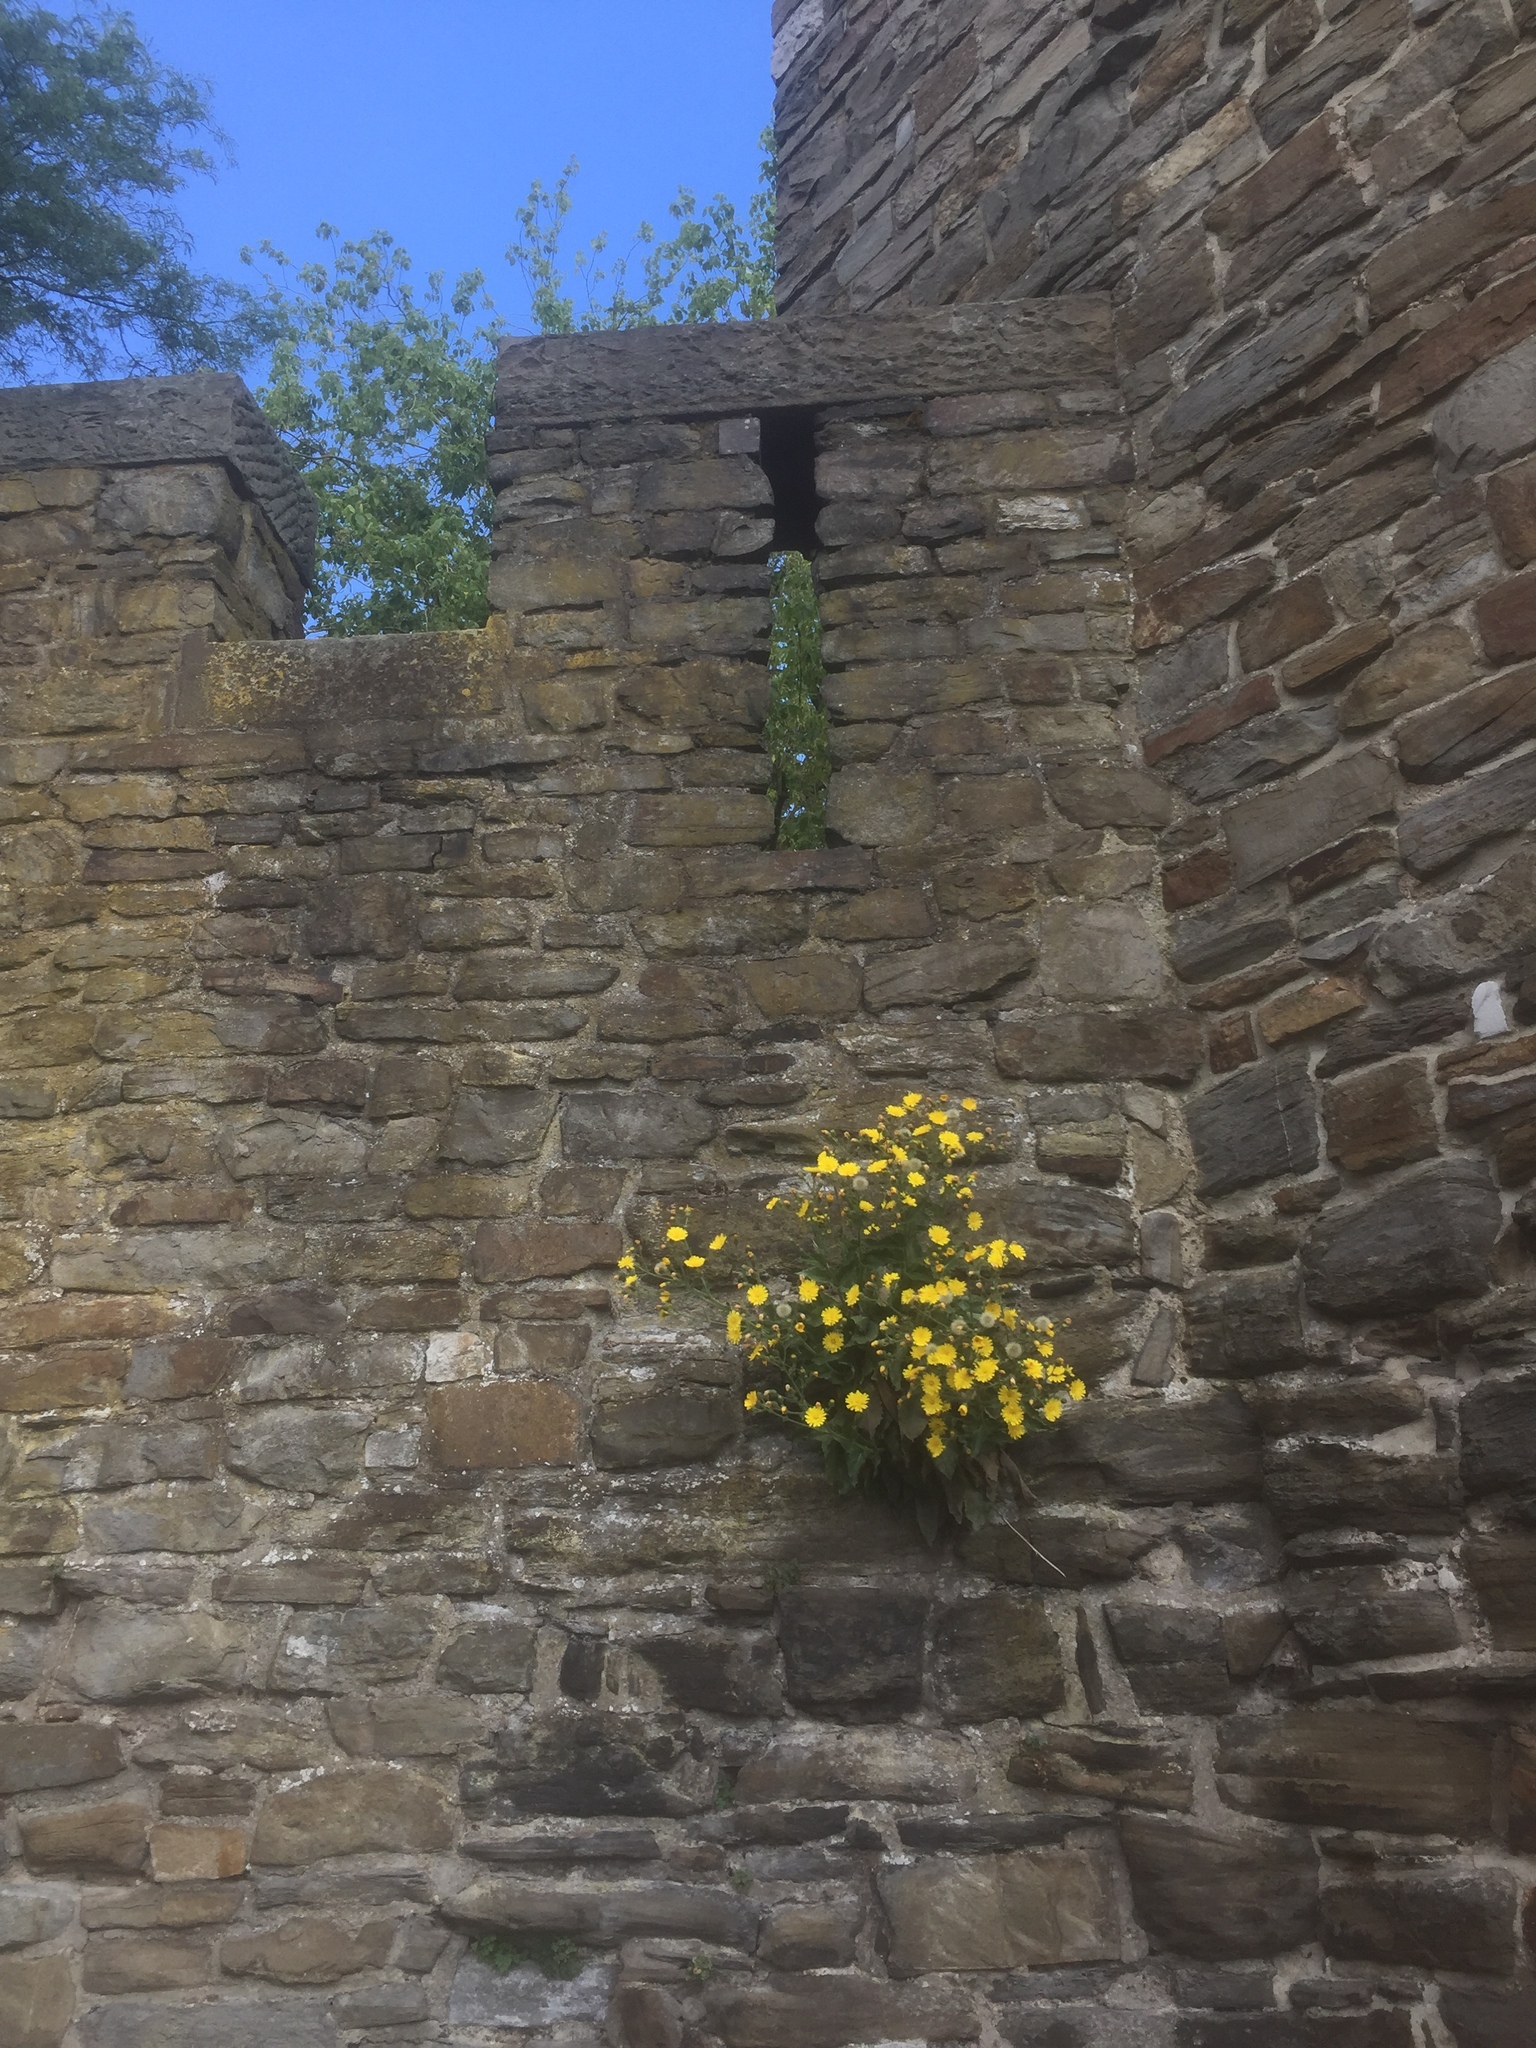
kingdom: Plantae
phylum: Tracheophyta
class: Magnoliopsida
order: Asterales
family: Asteraceae
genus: Hieracium
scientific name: Hieracium amplexicaule
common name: Sticky hawkweed
